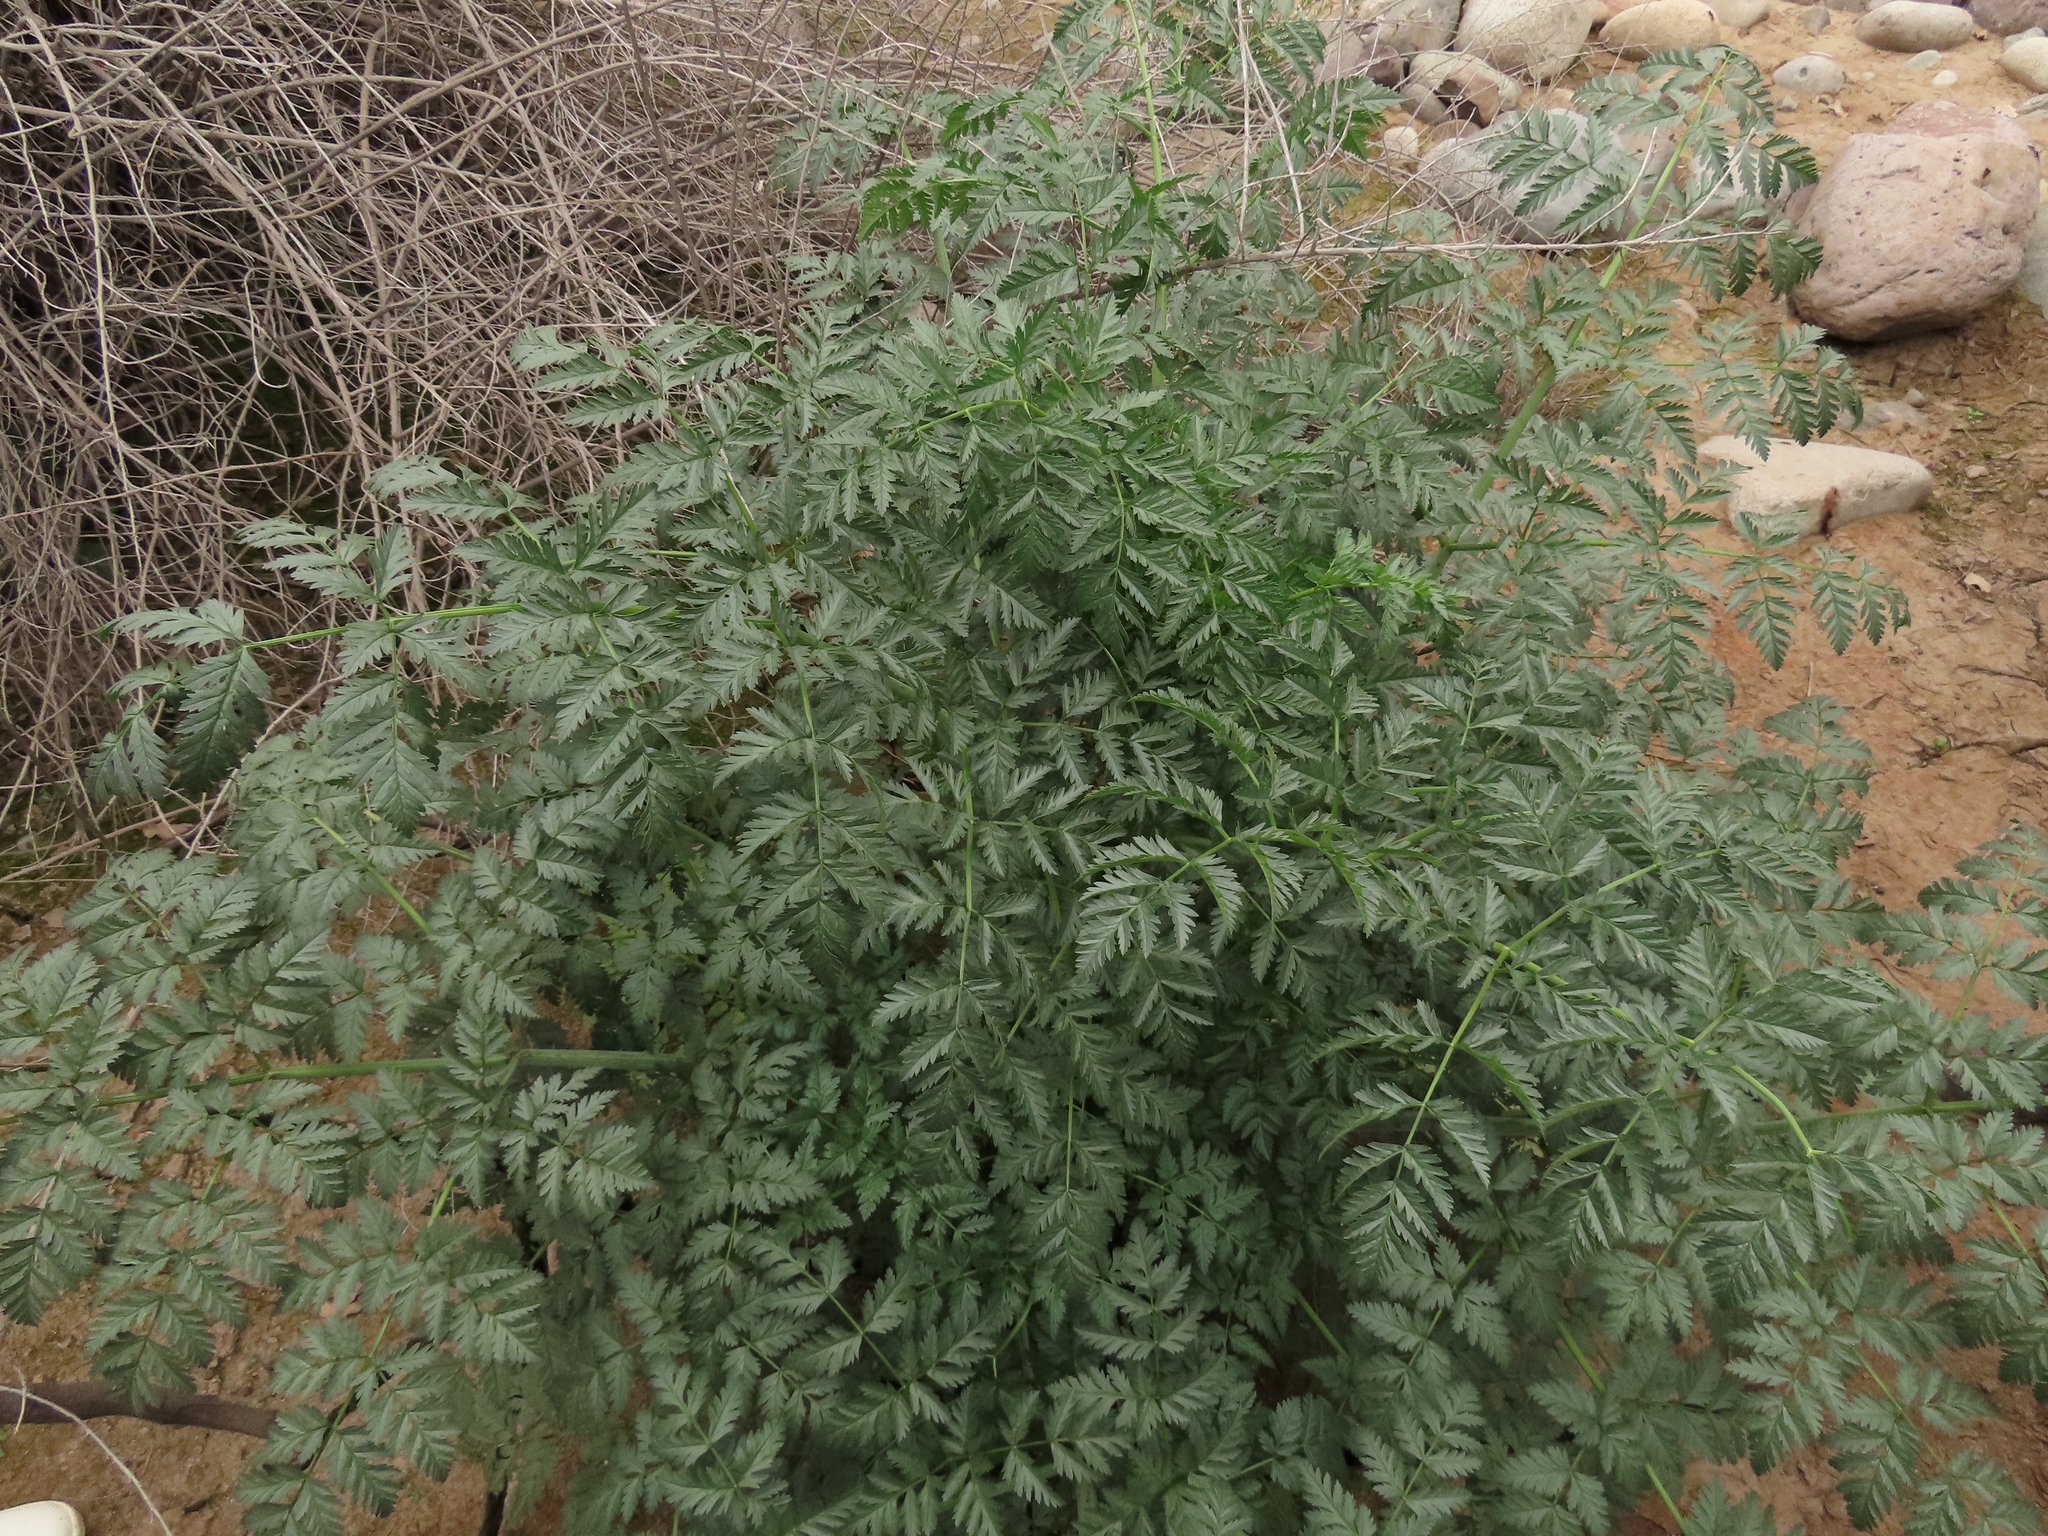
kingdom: Plantae
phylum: Tracheophyta
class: Magnoliopsida
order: Apiales
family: Apiaceae
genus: Conium
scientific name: Conium maculatum
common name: Hemlock
